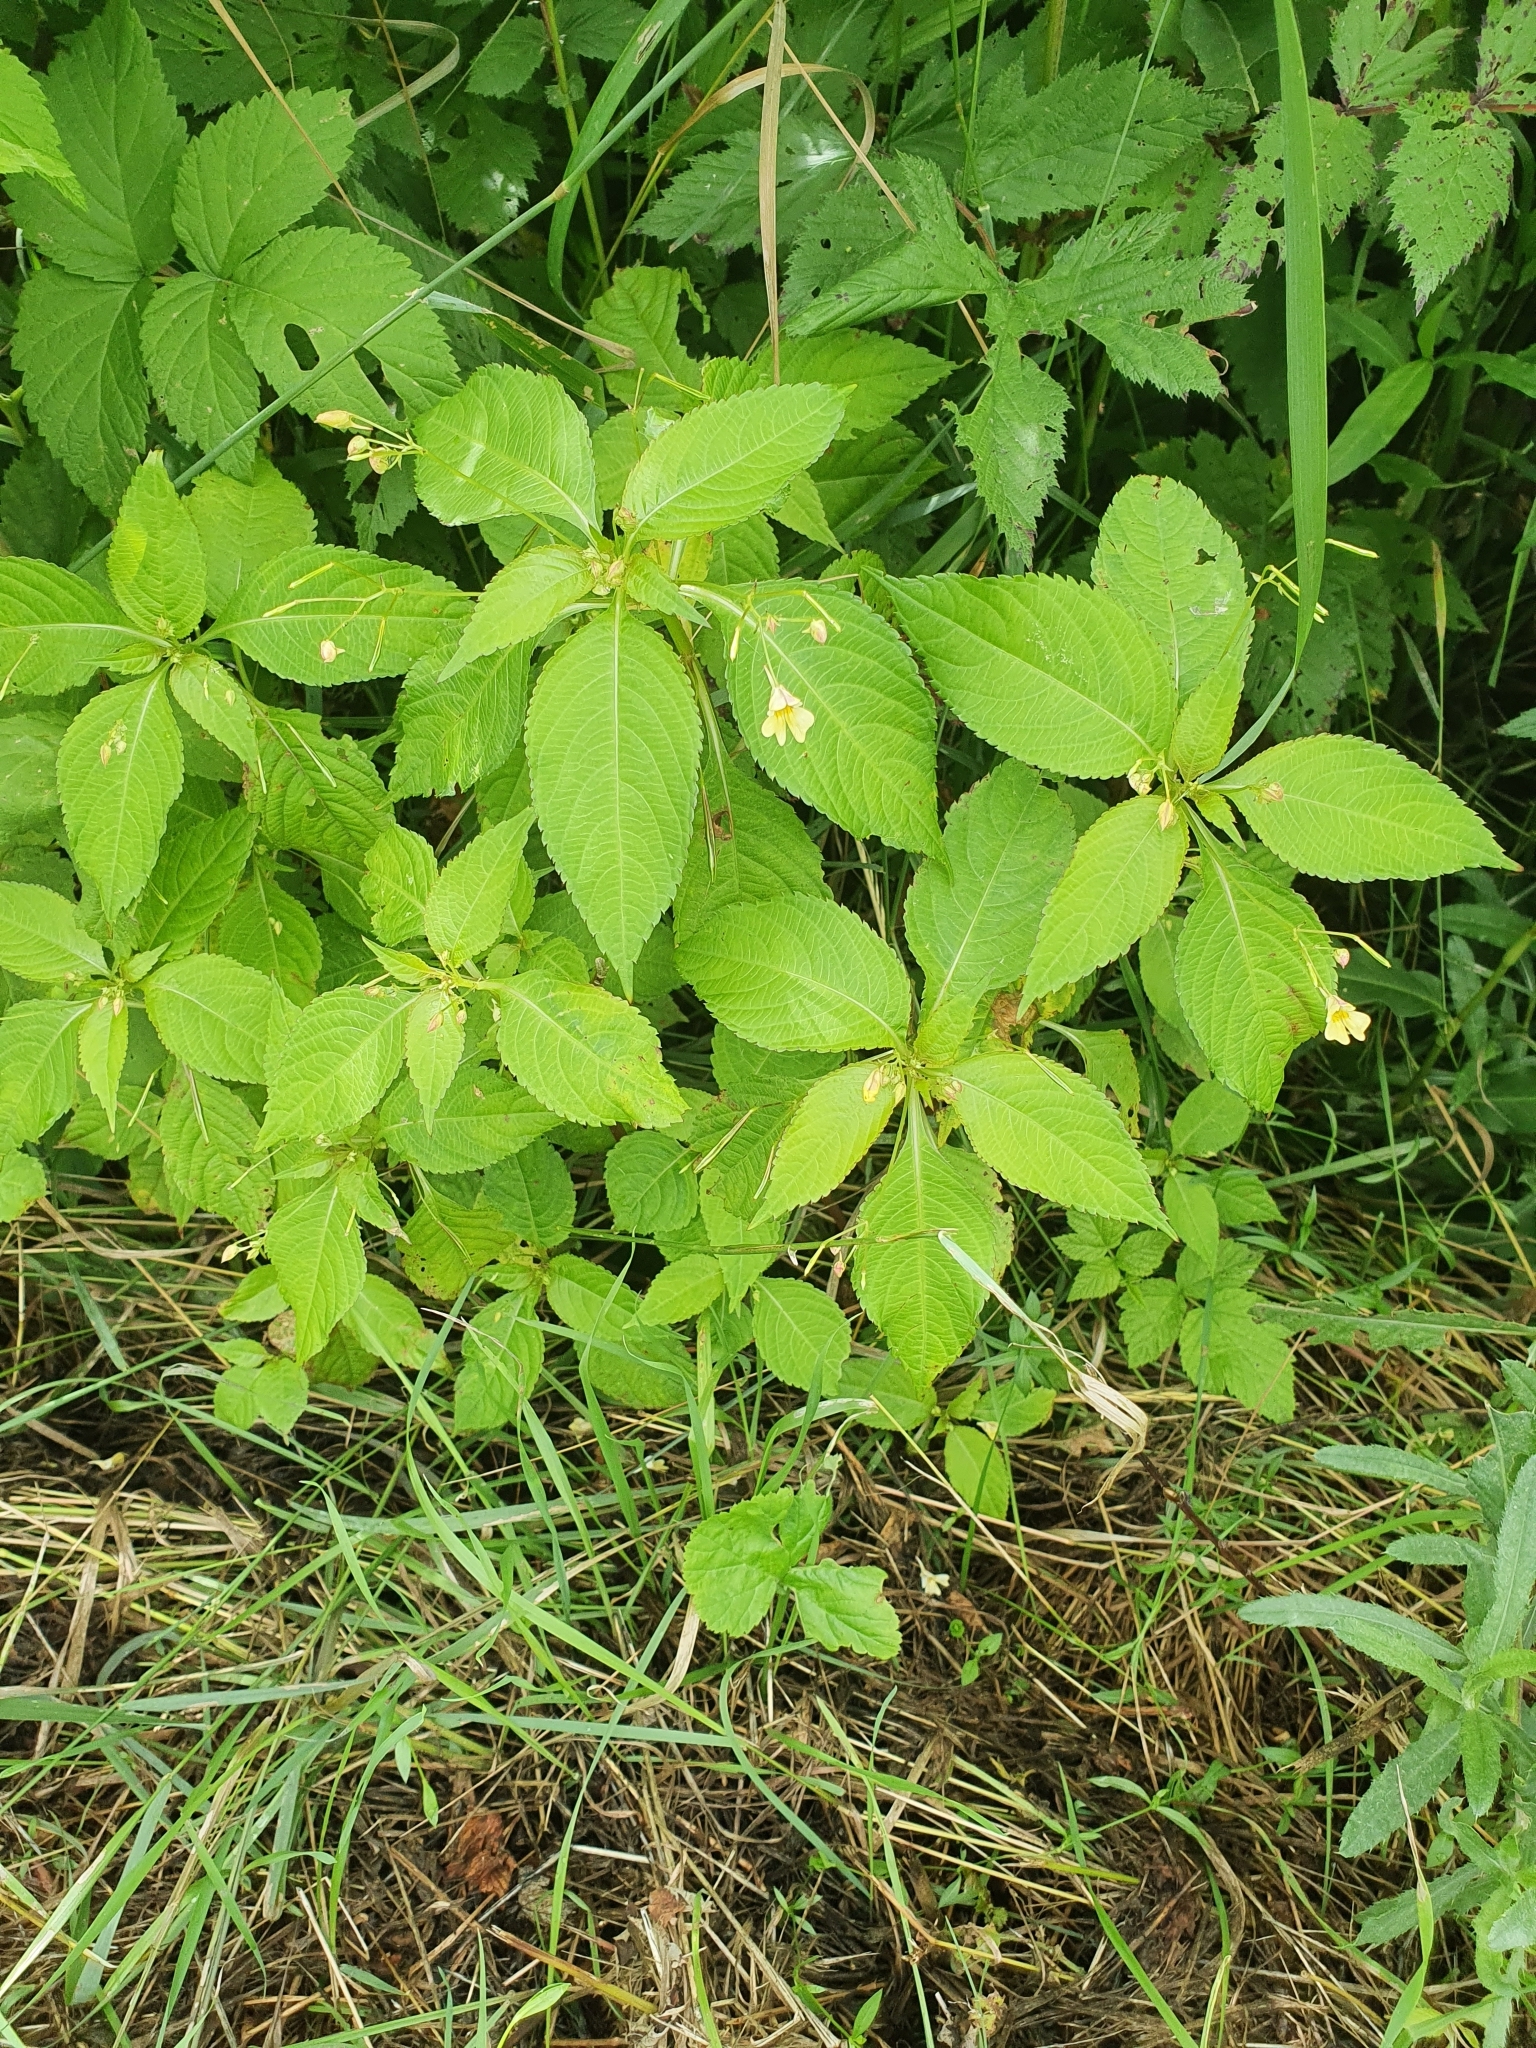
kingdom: Plantae
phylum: Tracheophyta
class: Magnoliopsida
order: Ericales
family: Balsaminaceae
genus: Impatiens
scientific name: Impatiens parviflora
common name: Small balsam
